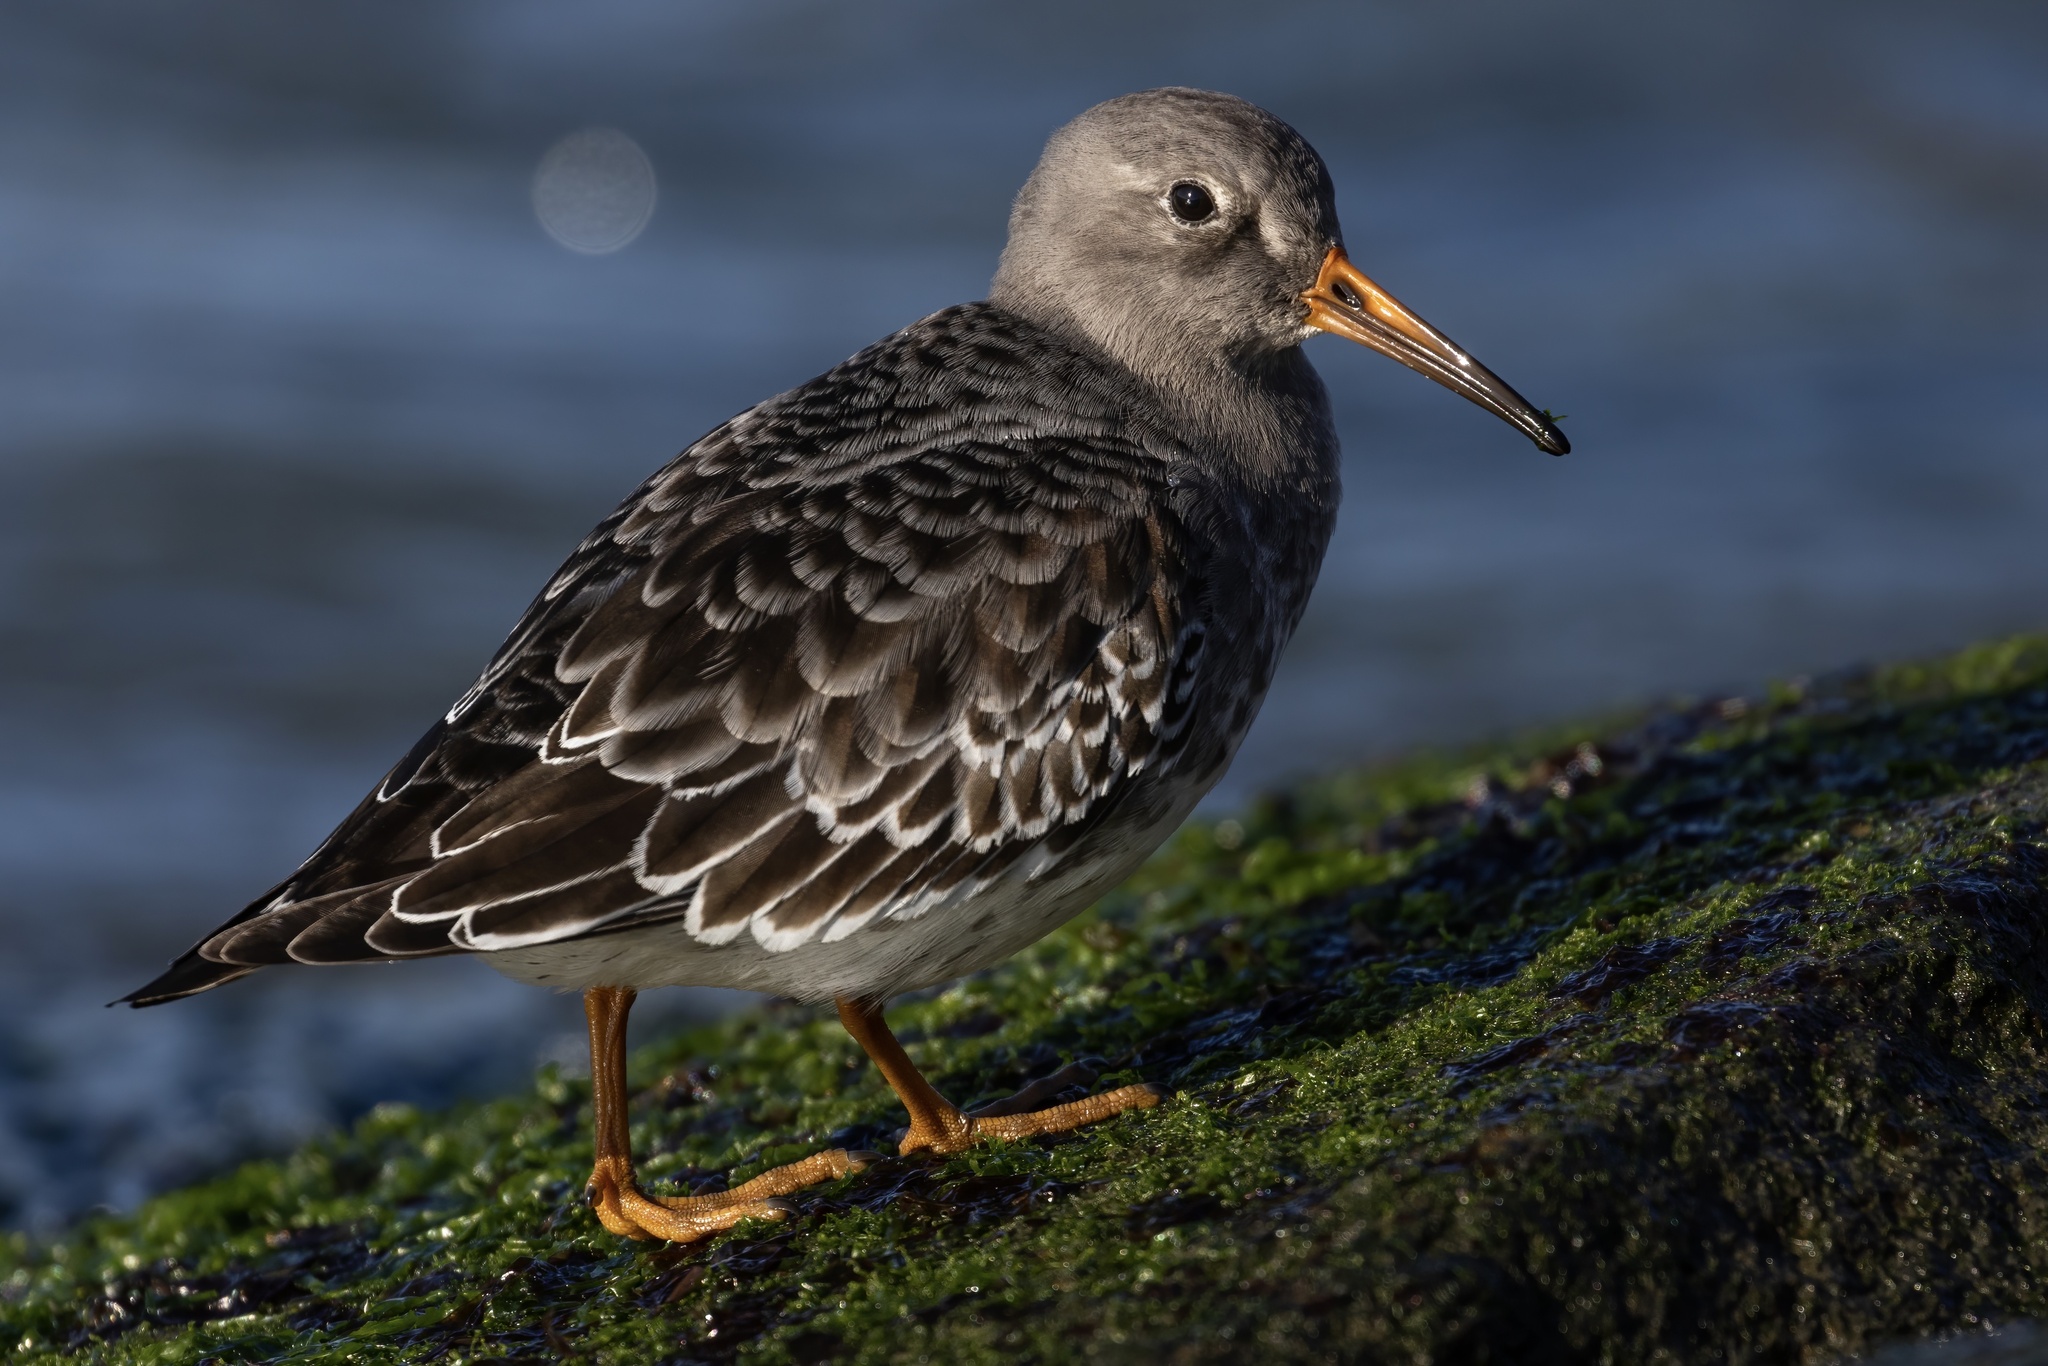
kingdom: Animalia
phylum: Chordata
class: Aves
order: Charadriiformes
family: Scolopacidae
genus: Calidris
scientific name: Calidris maritima
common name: Purple sandpiper
